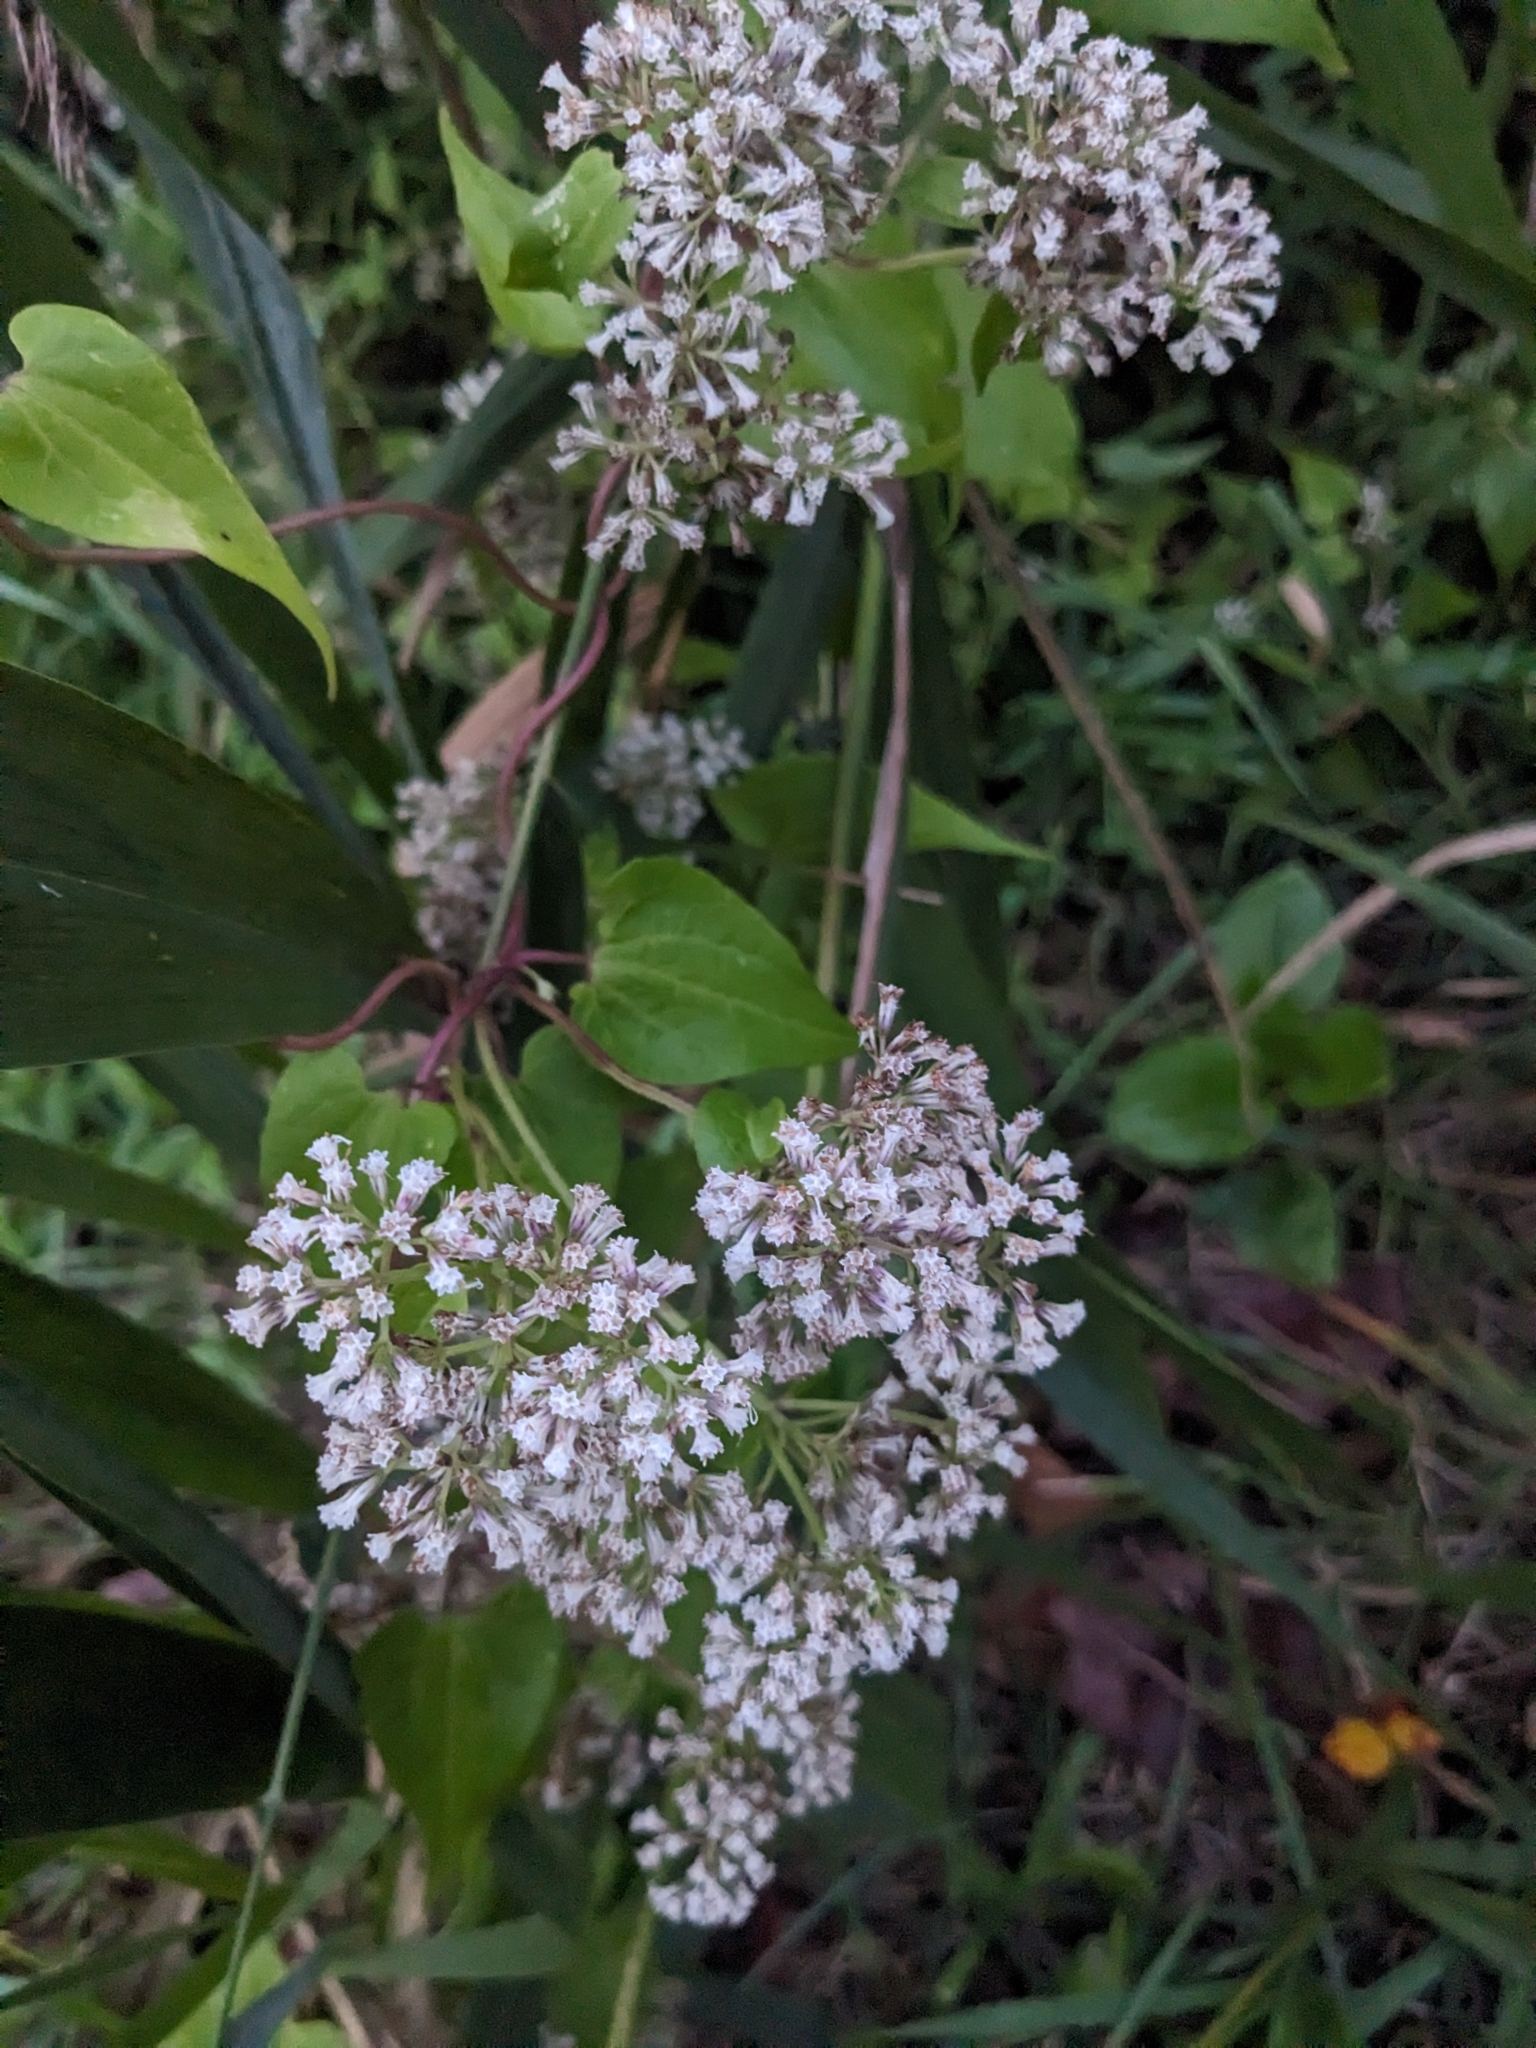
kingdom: Plantae
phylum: Tracheophyta
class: Magnoliopsida
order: Asterales
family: Asteraceae
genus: Mikania
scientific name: Mikania scandens
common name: Climbing hempvine
